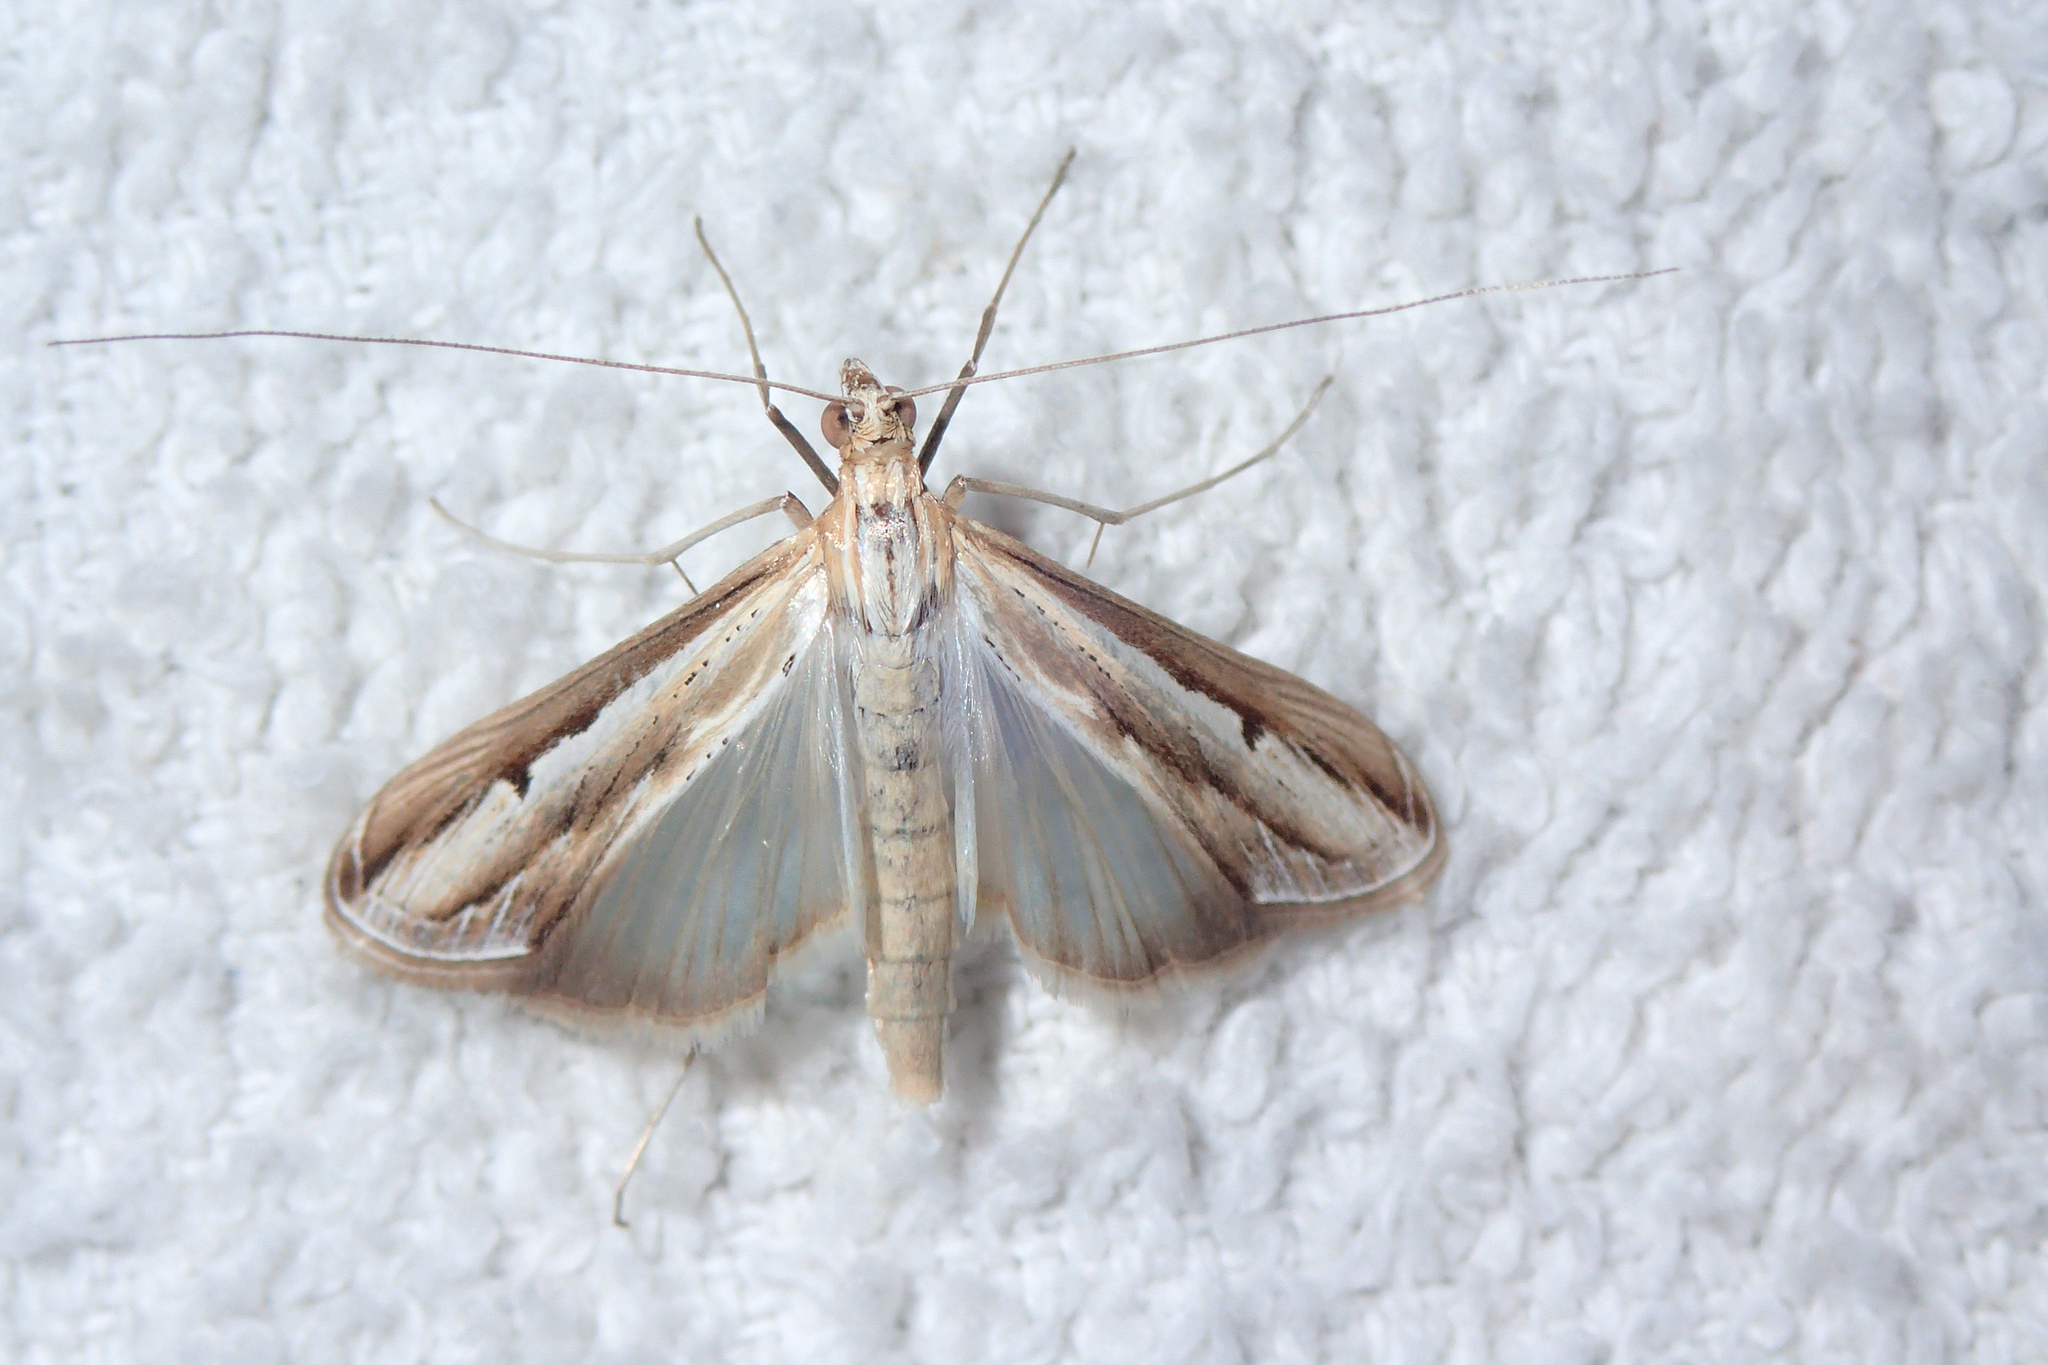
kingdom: Animalia
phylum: Arthropoda
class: Insecta
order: Lepidoptera
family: Crambidae
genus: Euclasta
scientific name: Euclasta varii
